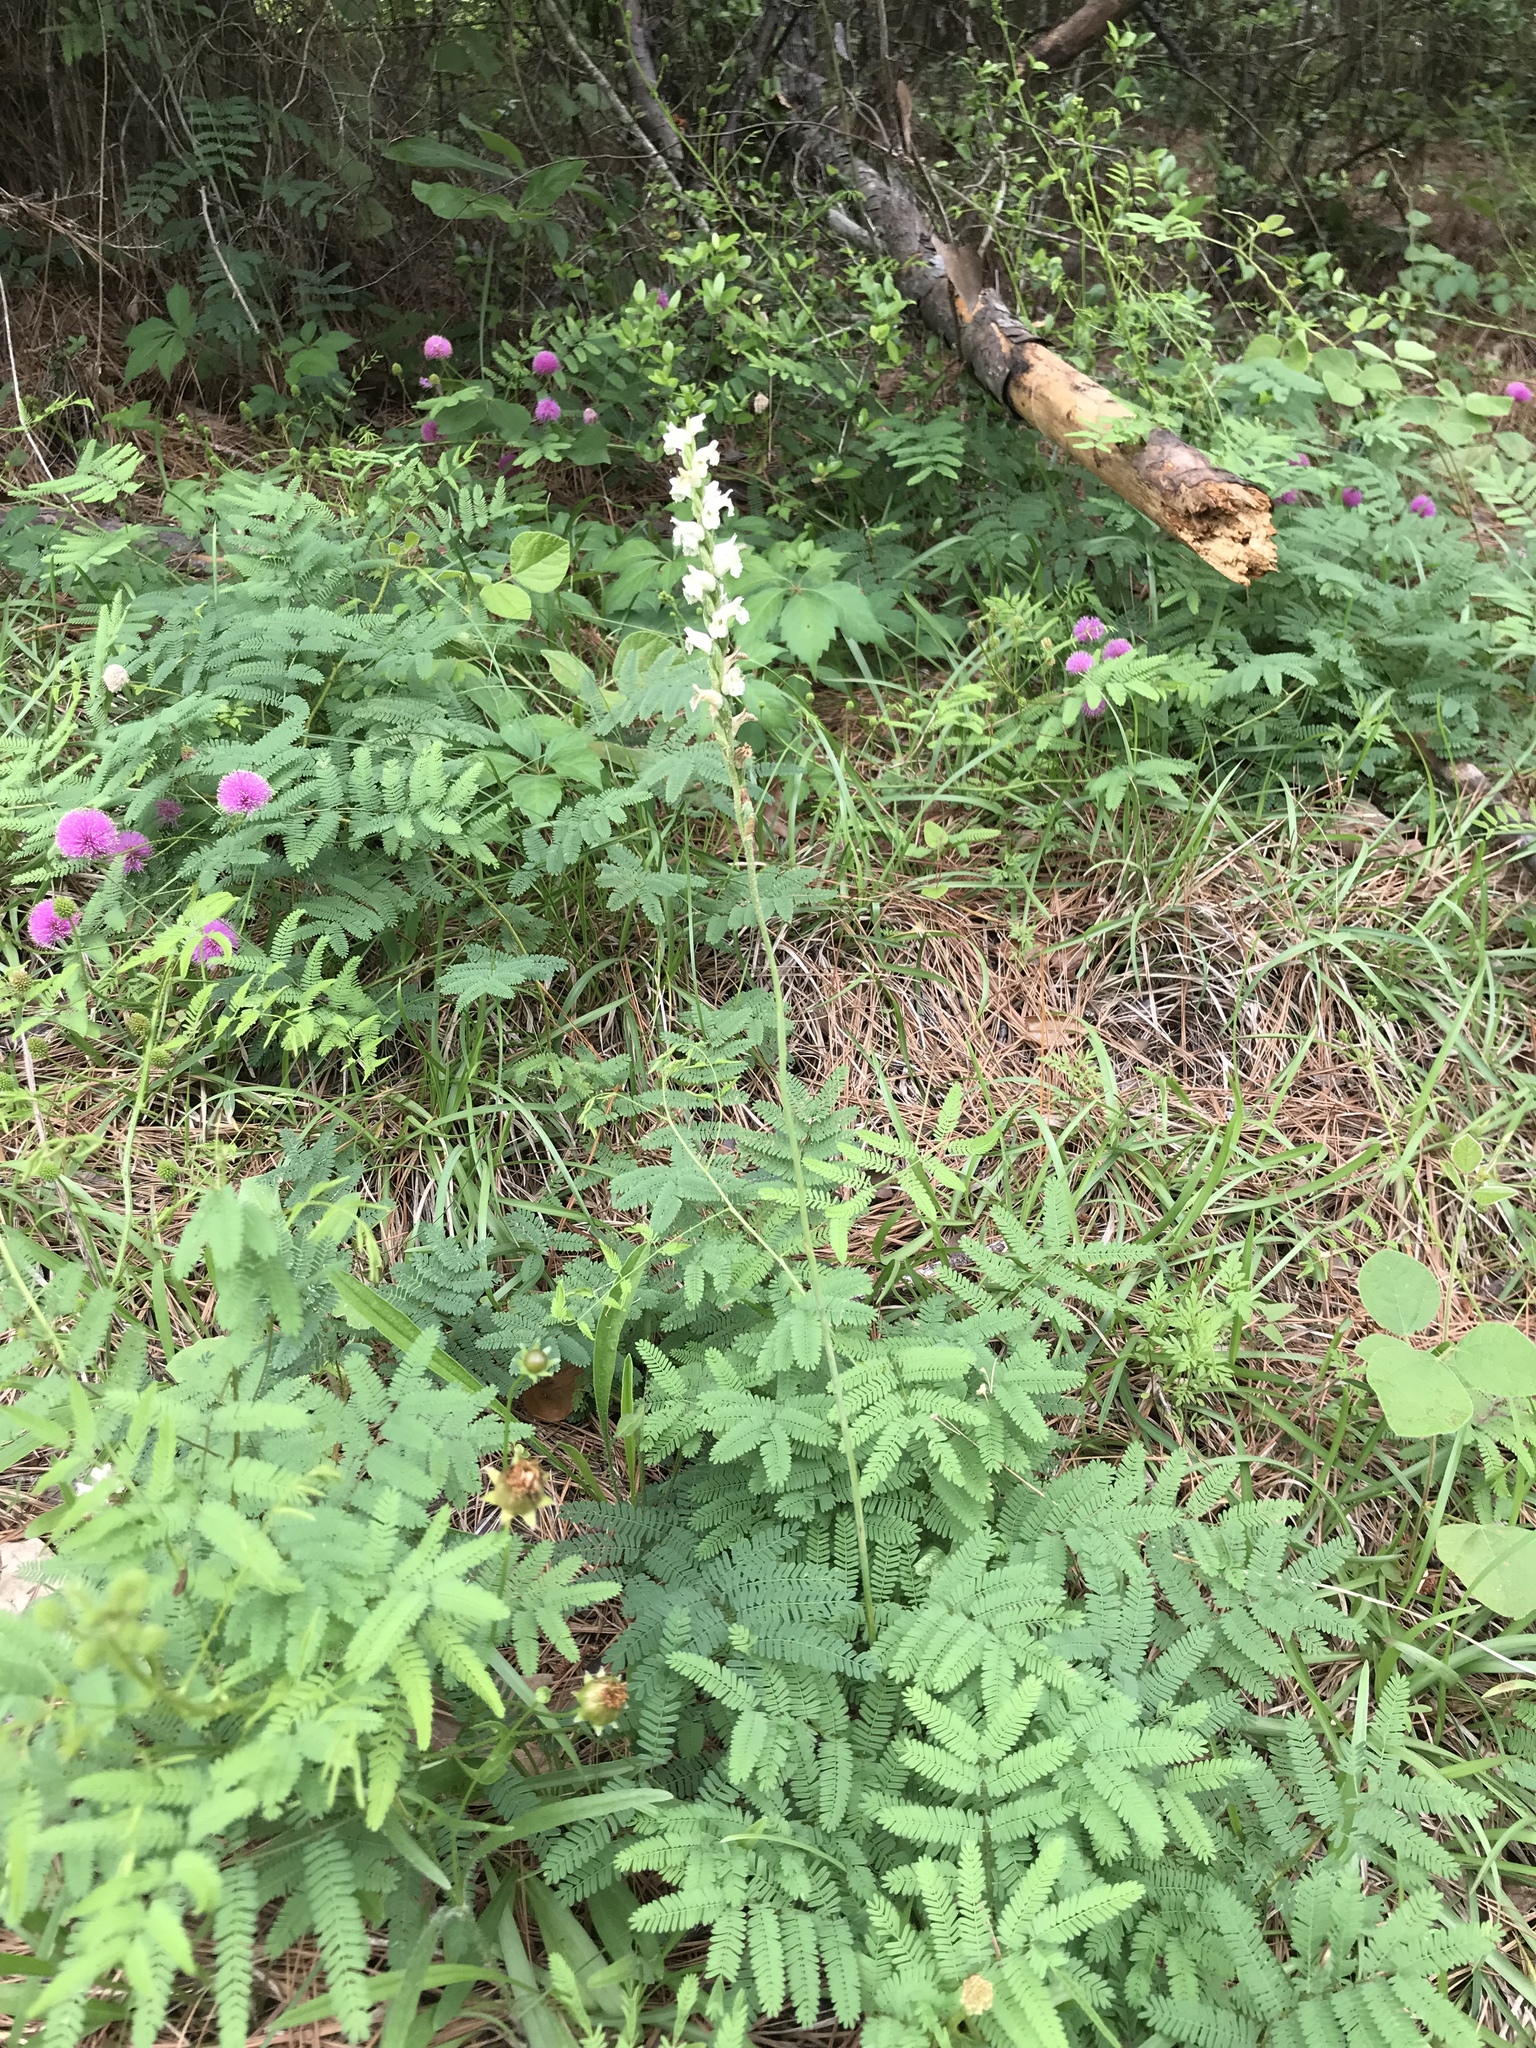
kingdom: Plantae
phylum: Tracheophyta
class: Liliopsida
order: Asparagales
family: Orchidaceae
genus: Spiranthes
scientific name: Spiranthes praecox
